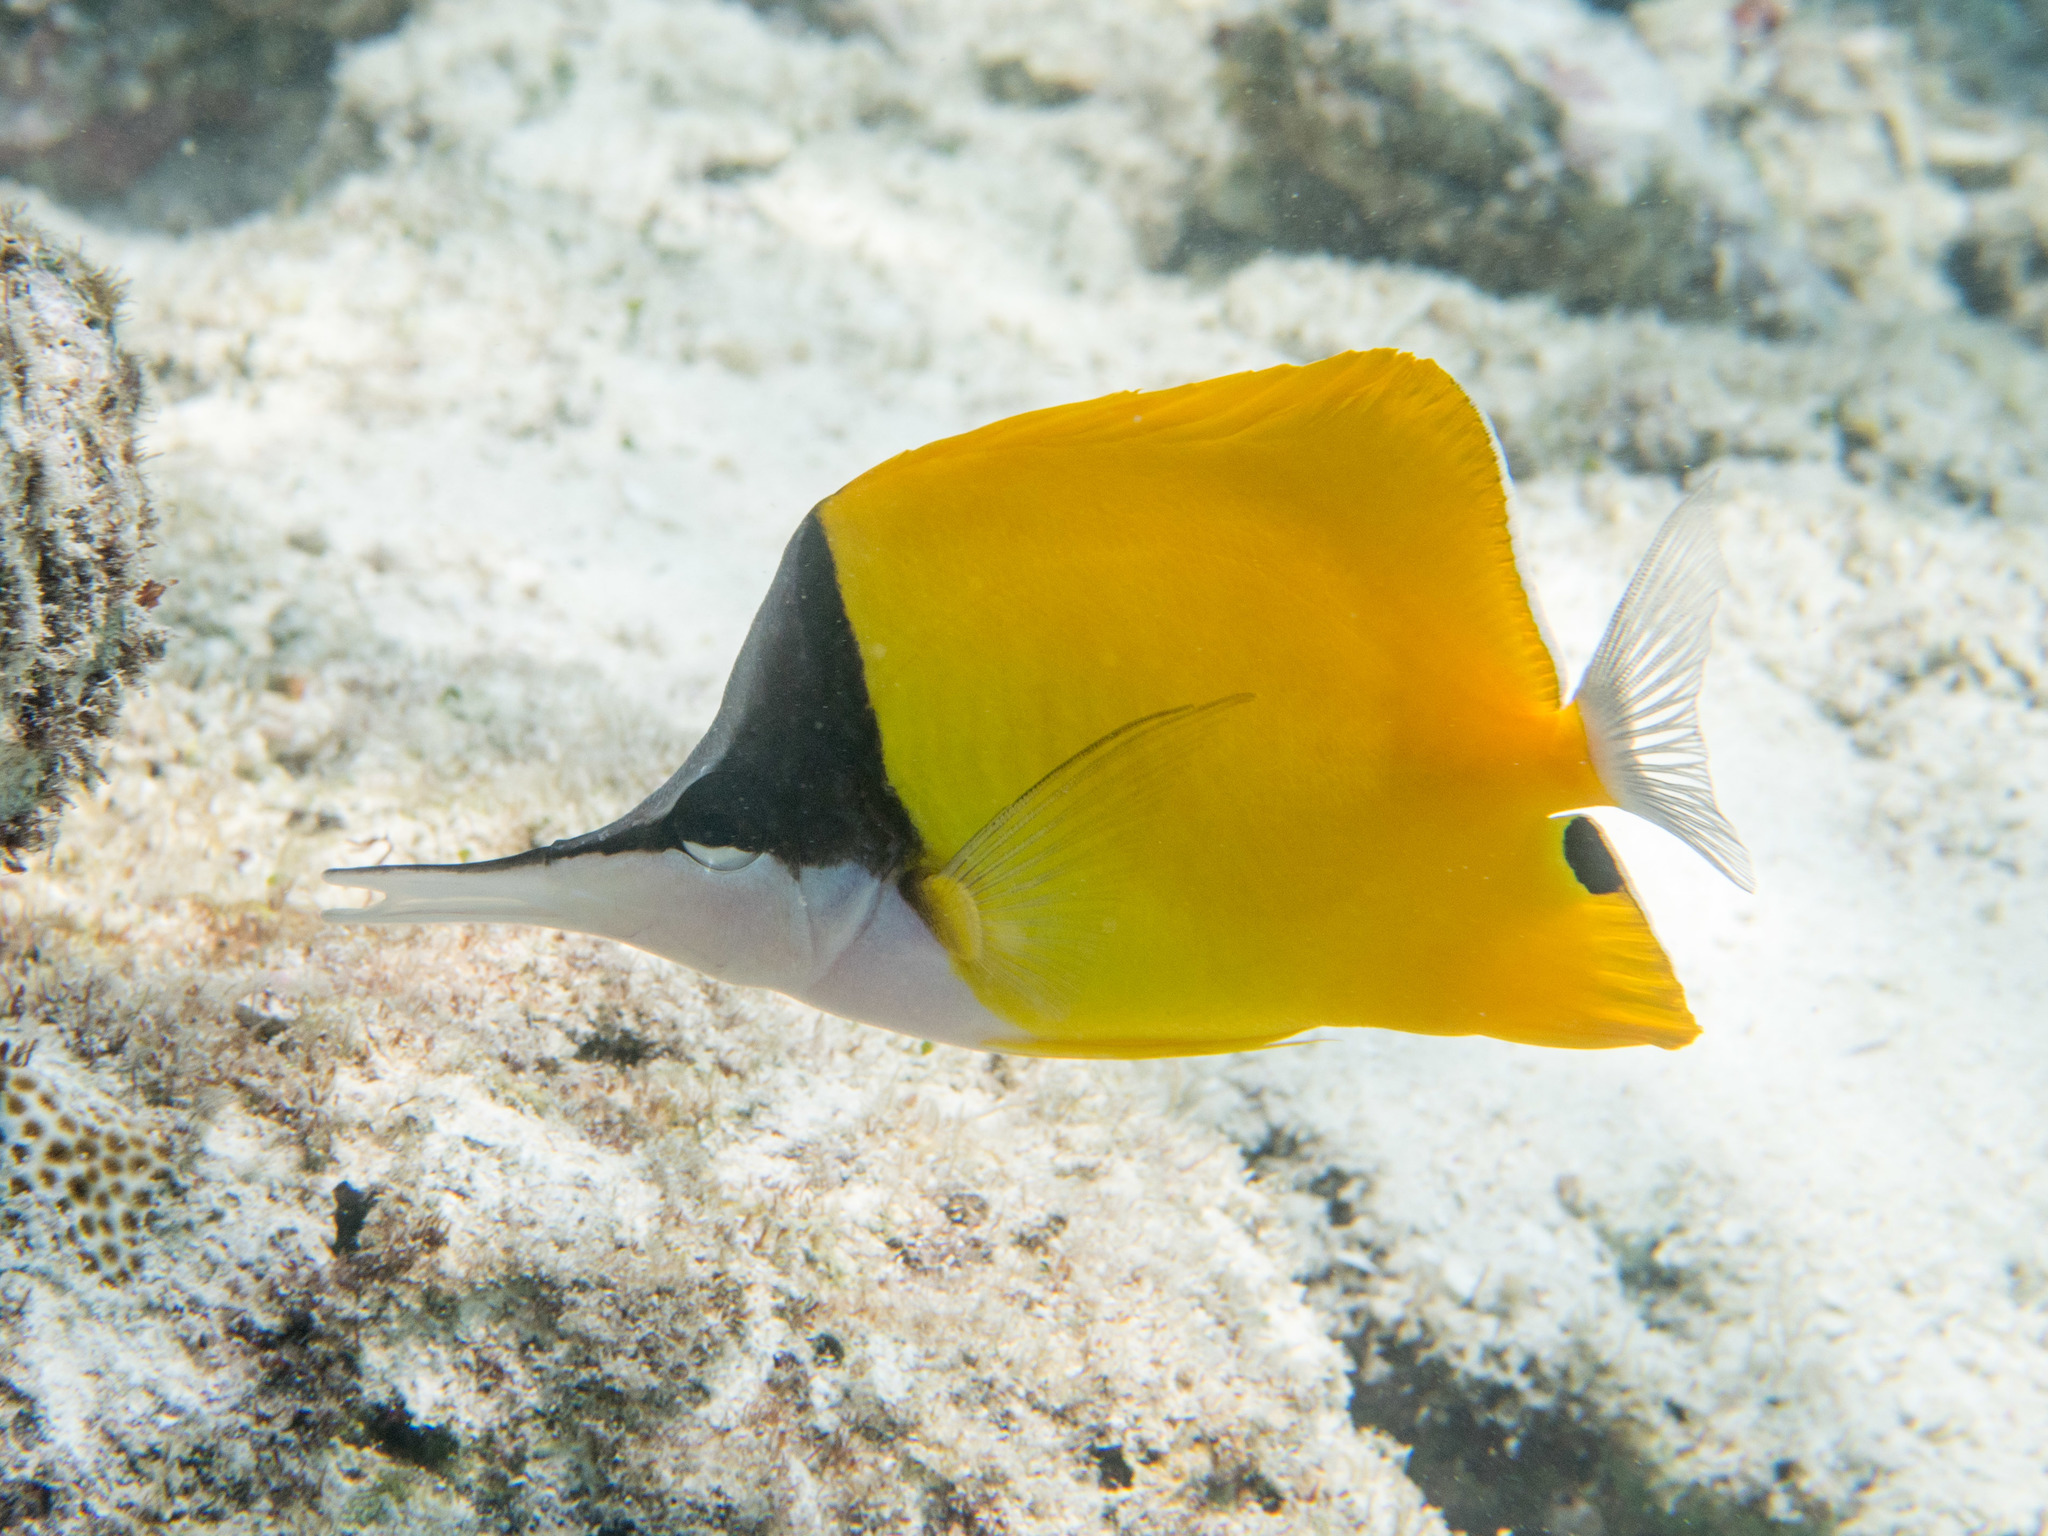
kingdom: Animalia
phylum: Chordata
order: Perciformes
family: Chaetodontidae
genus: Forcipiger
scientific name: Forcipiger flavissimus
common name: Forcepsfish
